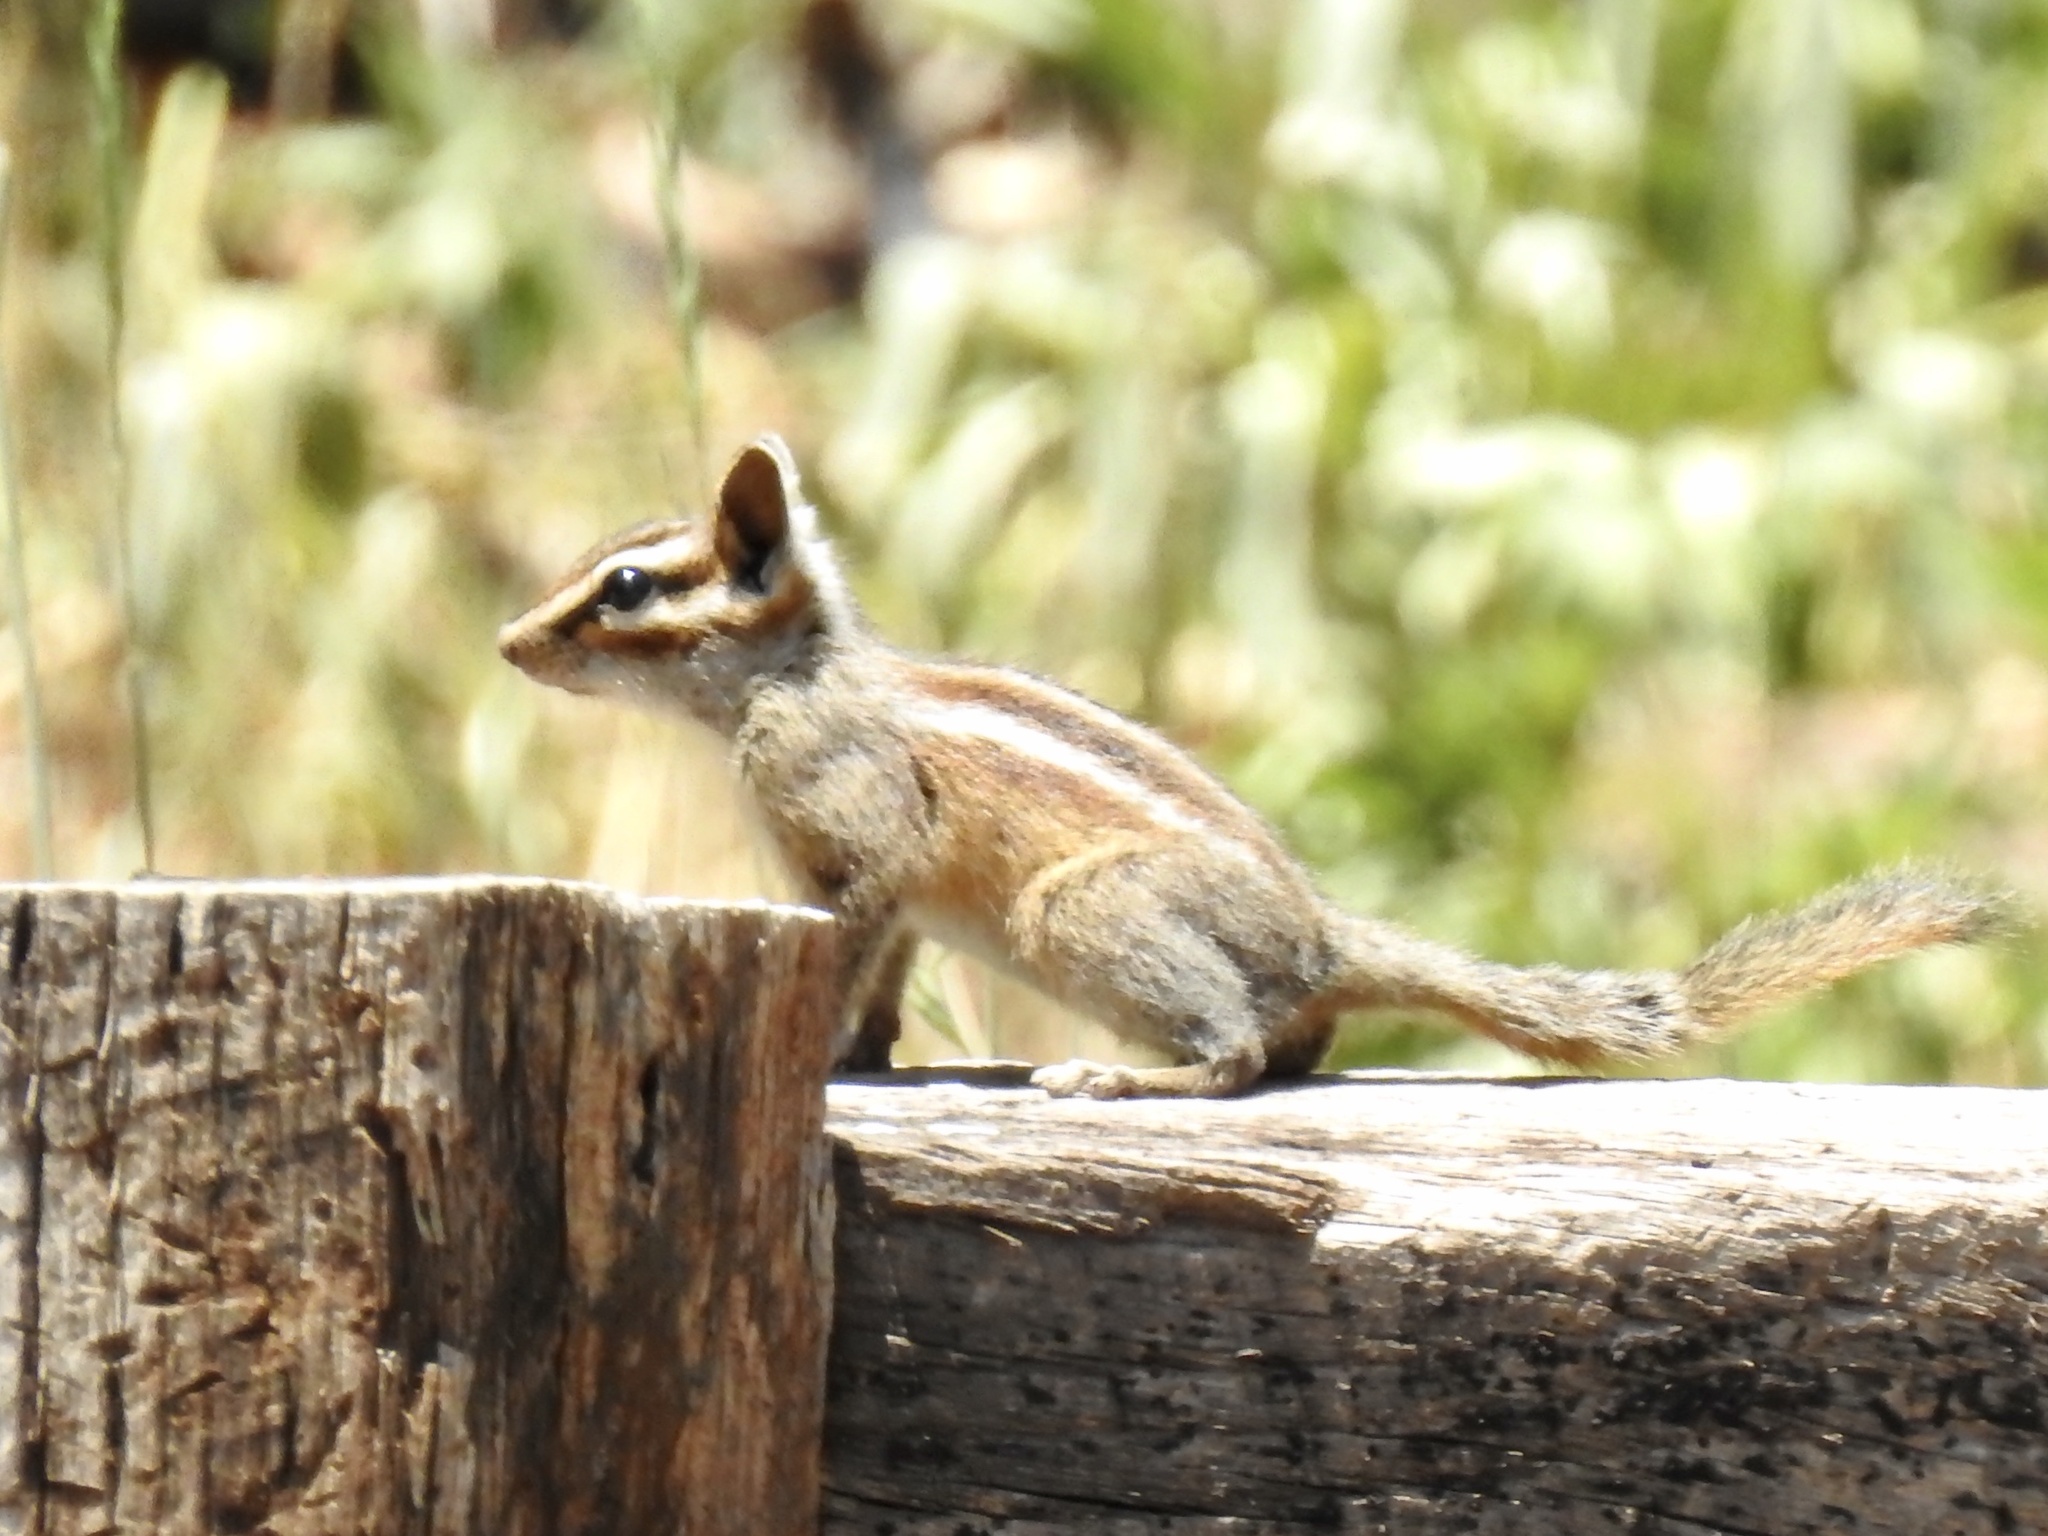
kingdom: Animalia
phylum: Chordata
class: Mammalia
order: Rodentia
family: Sciuridae
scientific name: Sciuridae
